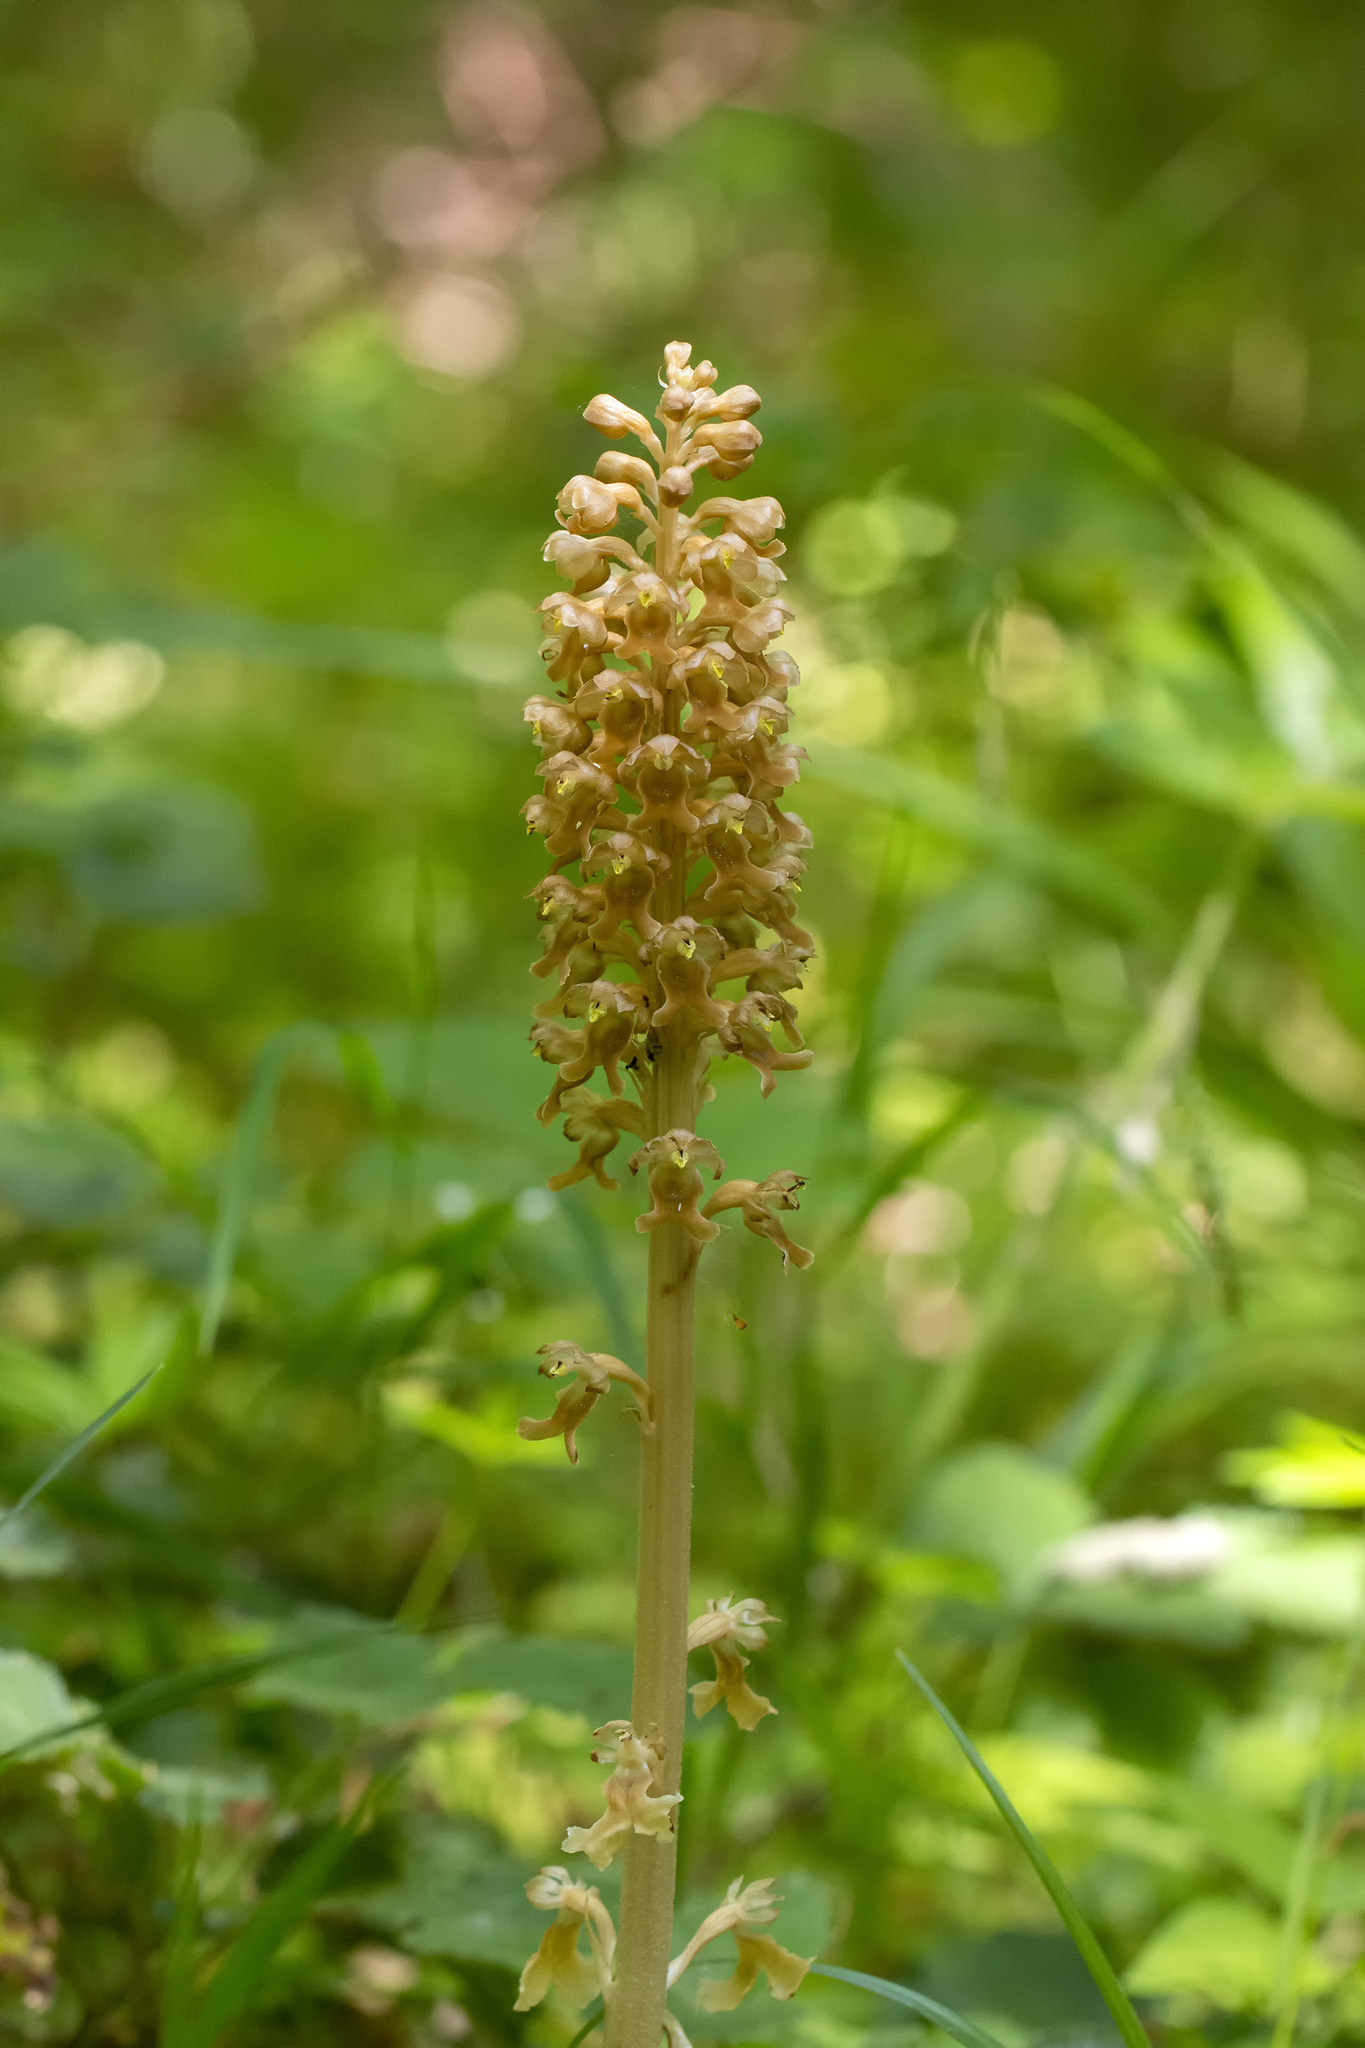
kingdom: Plantae
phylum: Tracheophyta
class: Liliopsida
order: Asparagales
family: Orchidaceae
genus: Neottia
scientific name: Neottia nidus-avis
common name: Bird's-nest orchid
